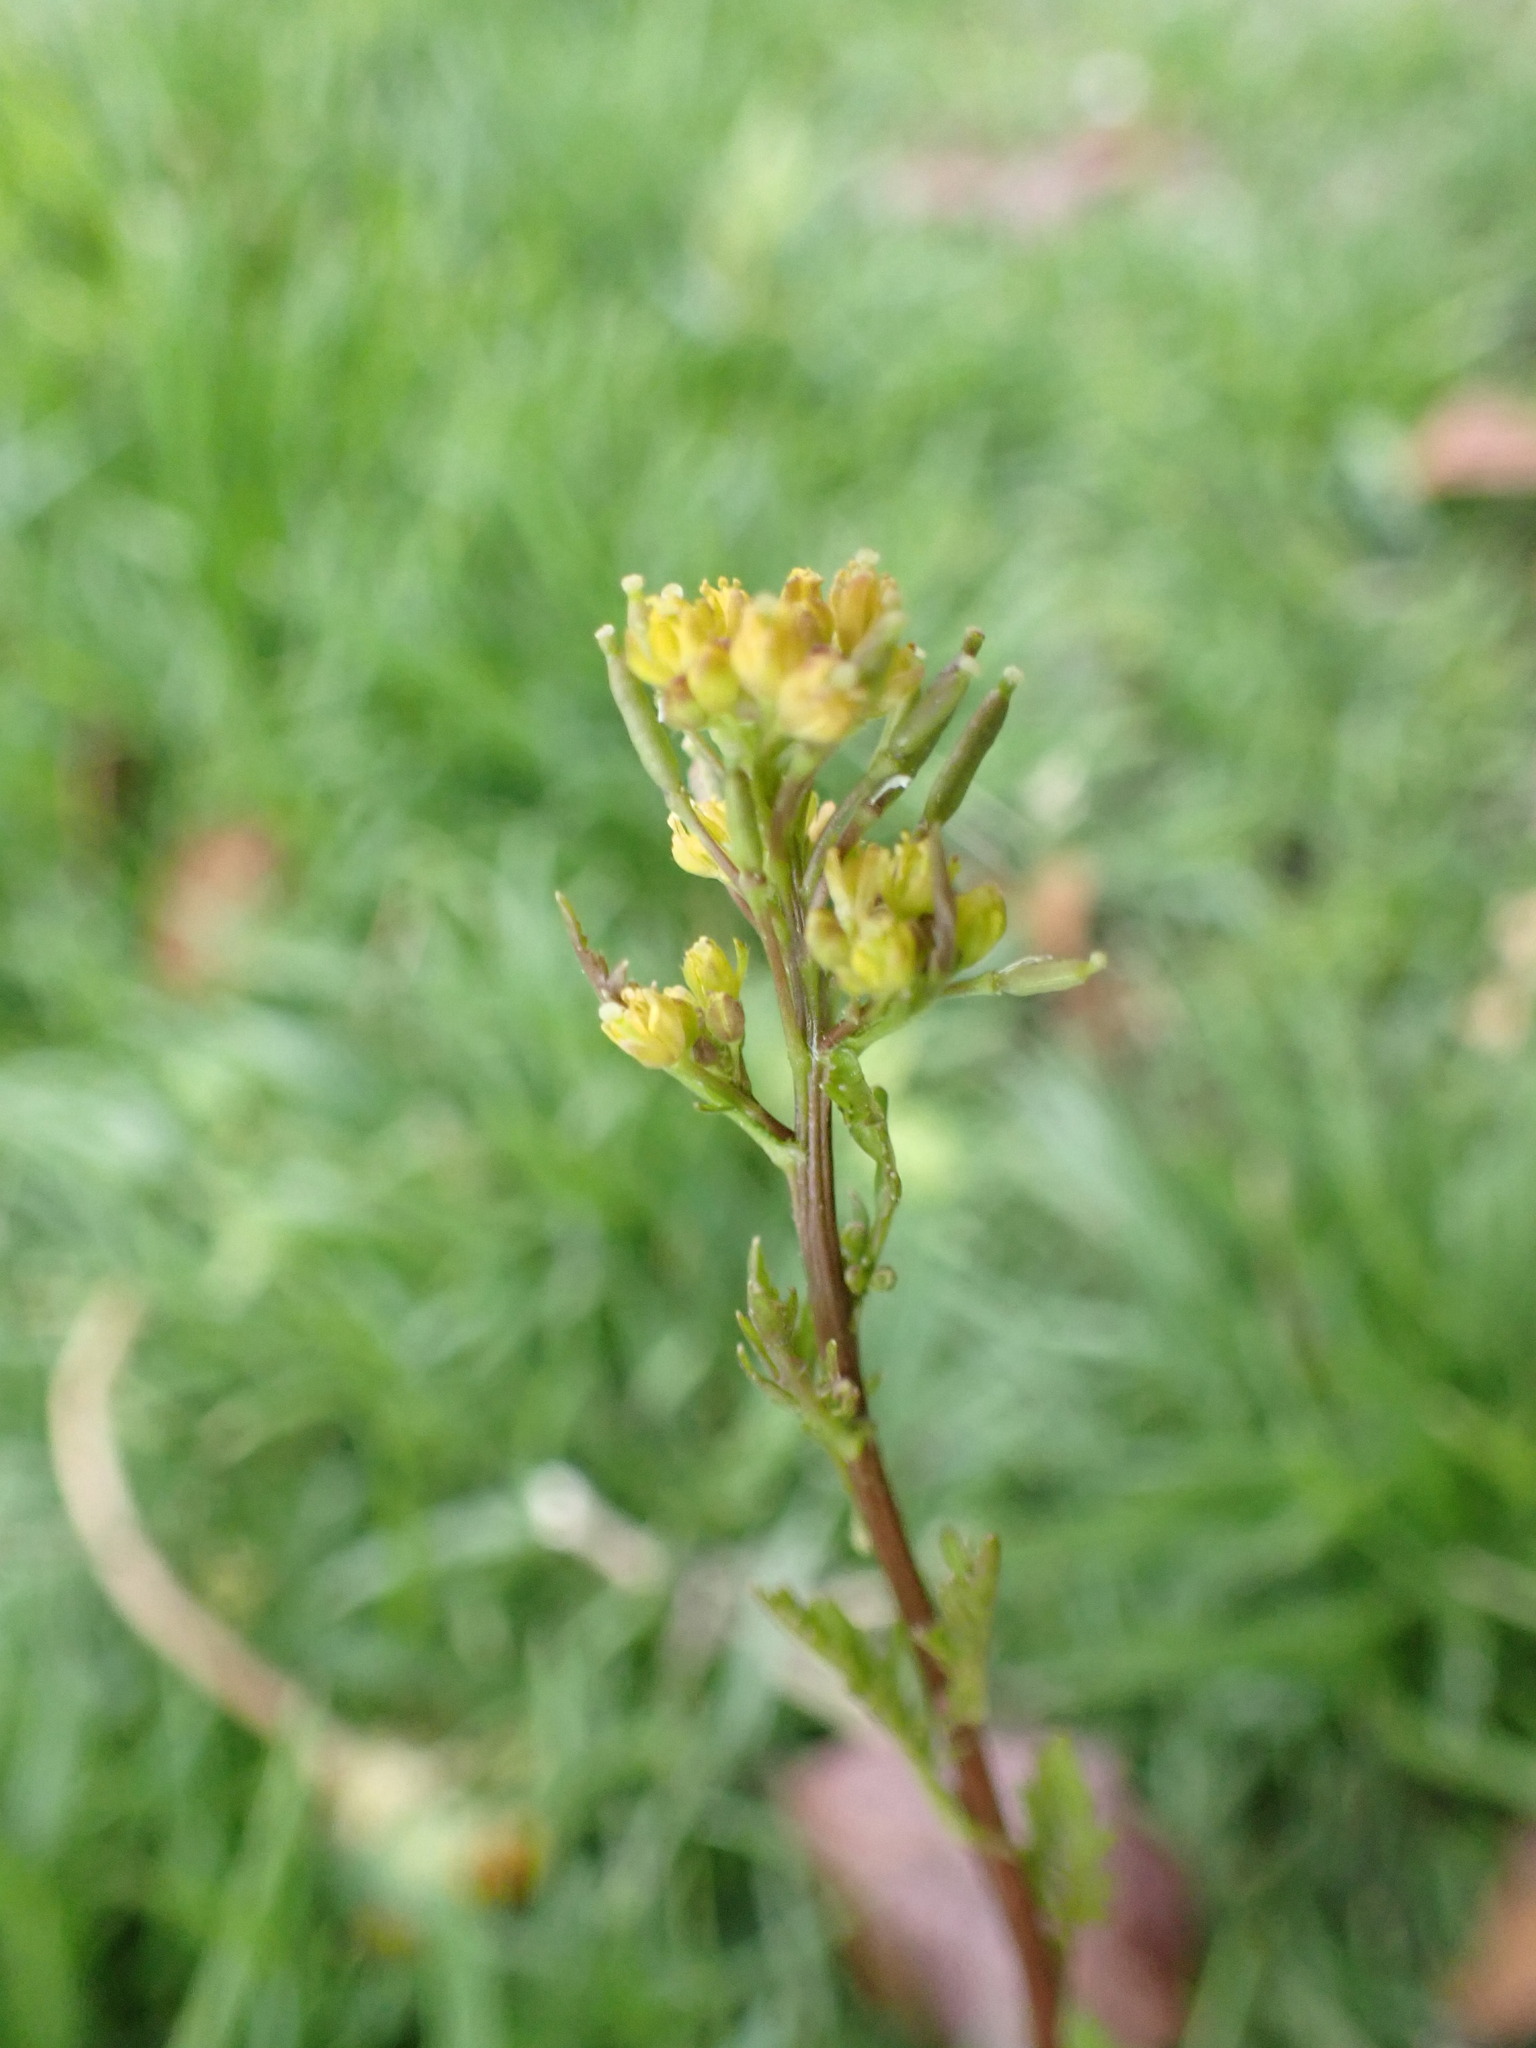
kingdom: Plantae
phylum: Tracheophyta
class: Magnoliopsida
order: Brassicales
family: Brassicaceae
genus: Rorippa
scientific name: Rorippa palustris
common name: Marsh yellow-cress
